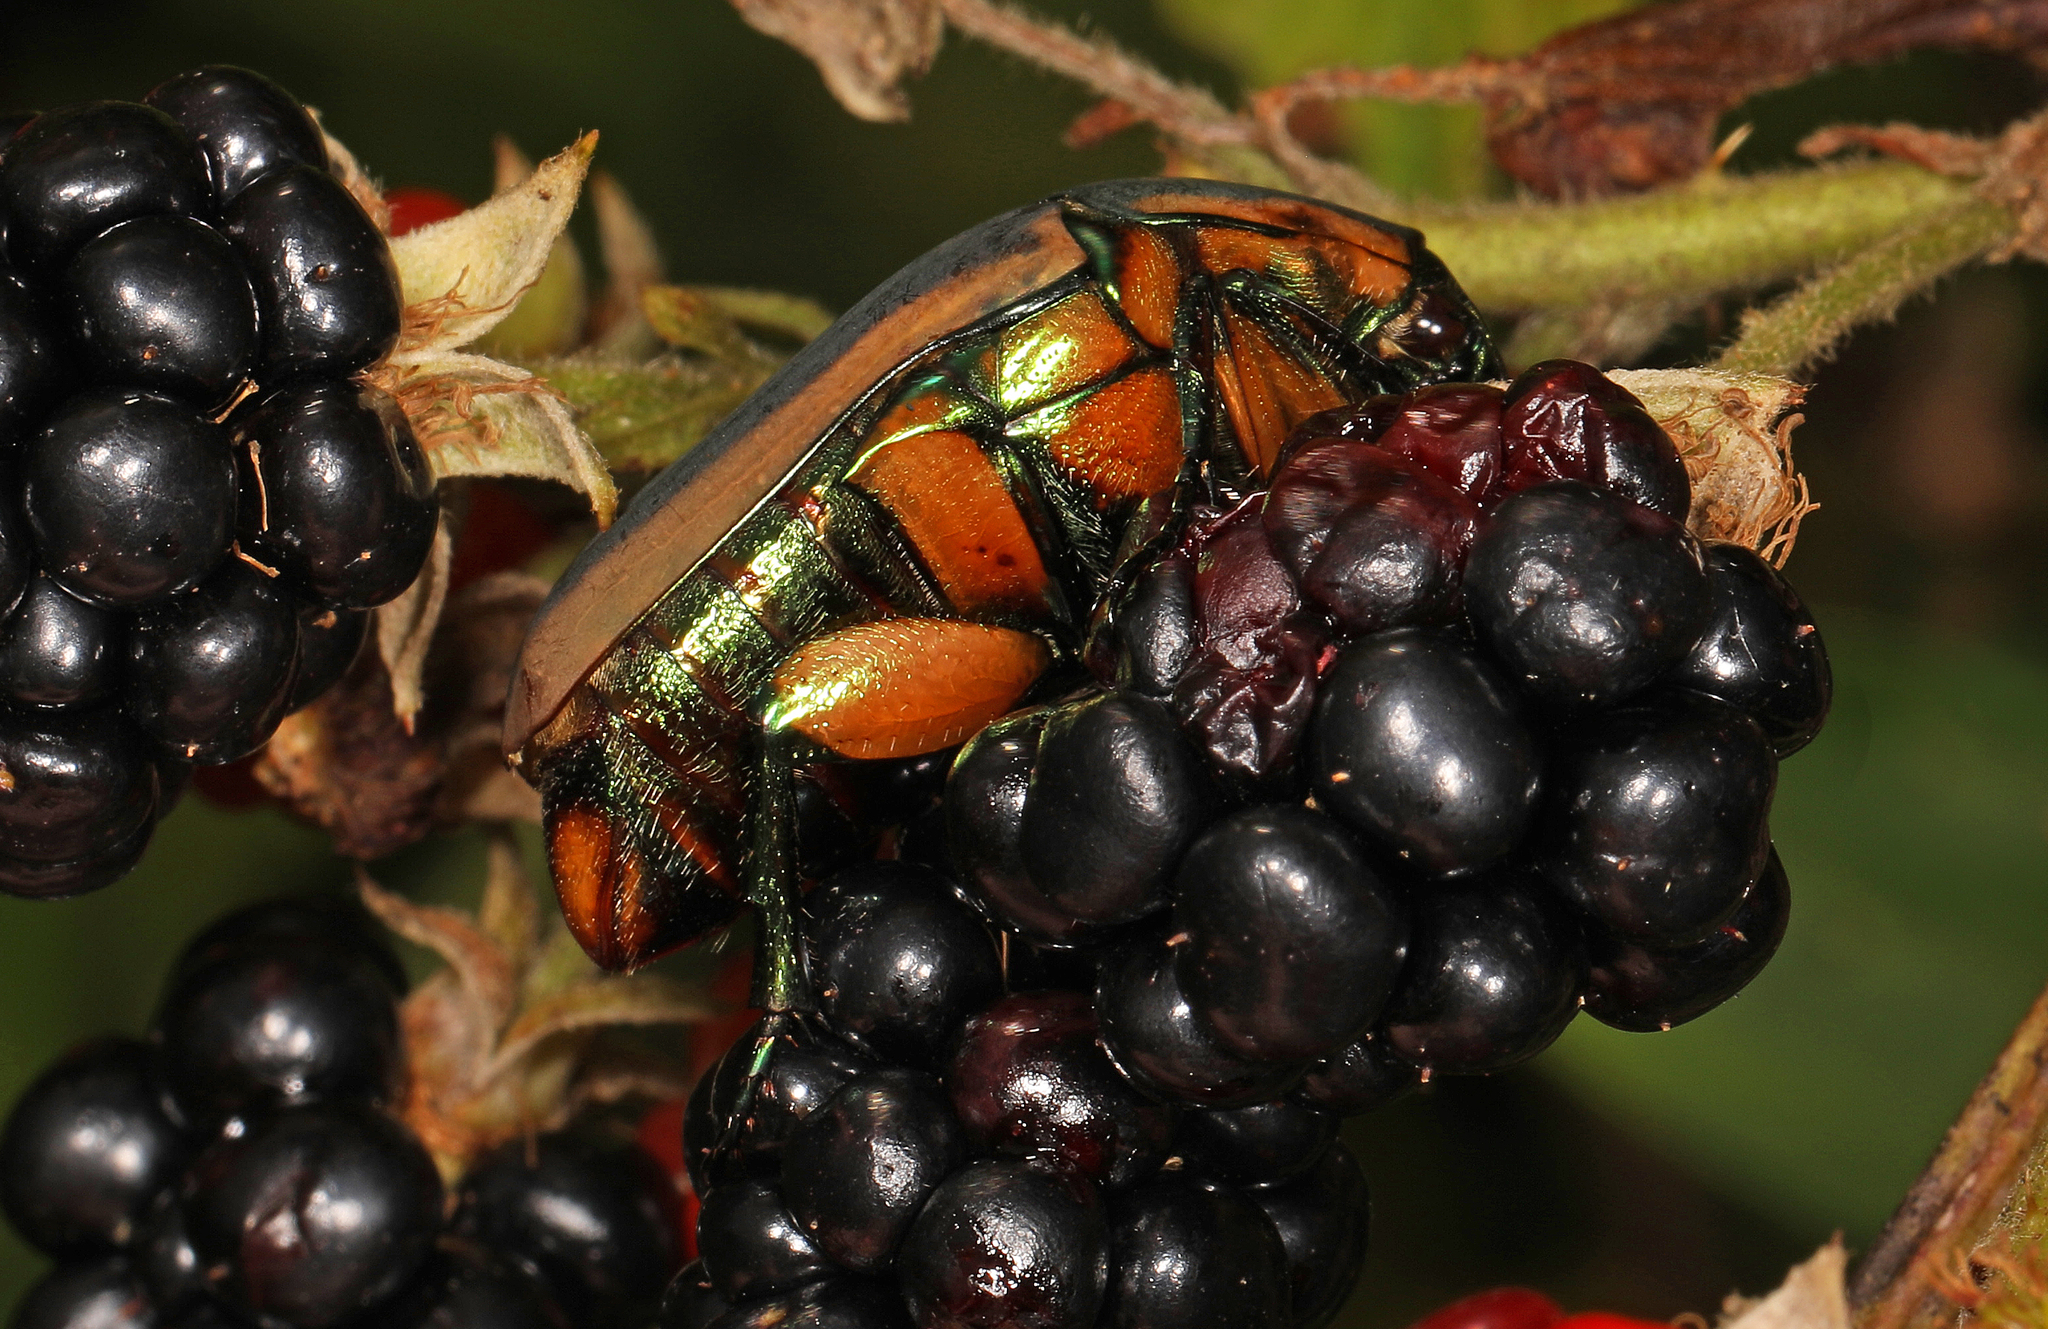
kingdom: Animalia
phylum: Arthropoda
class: Insecta
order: Coleoptera
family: Scarabaeidae
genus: Cotinis
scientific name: Cotinis nitida
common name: Common green june beetle
